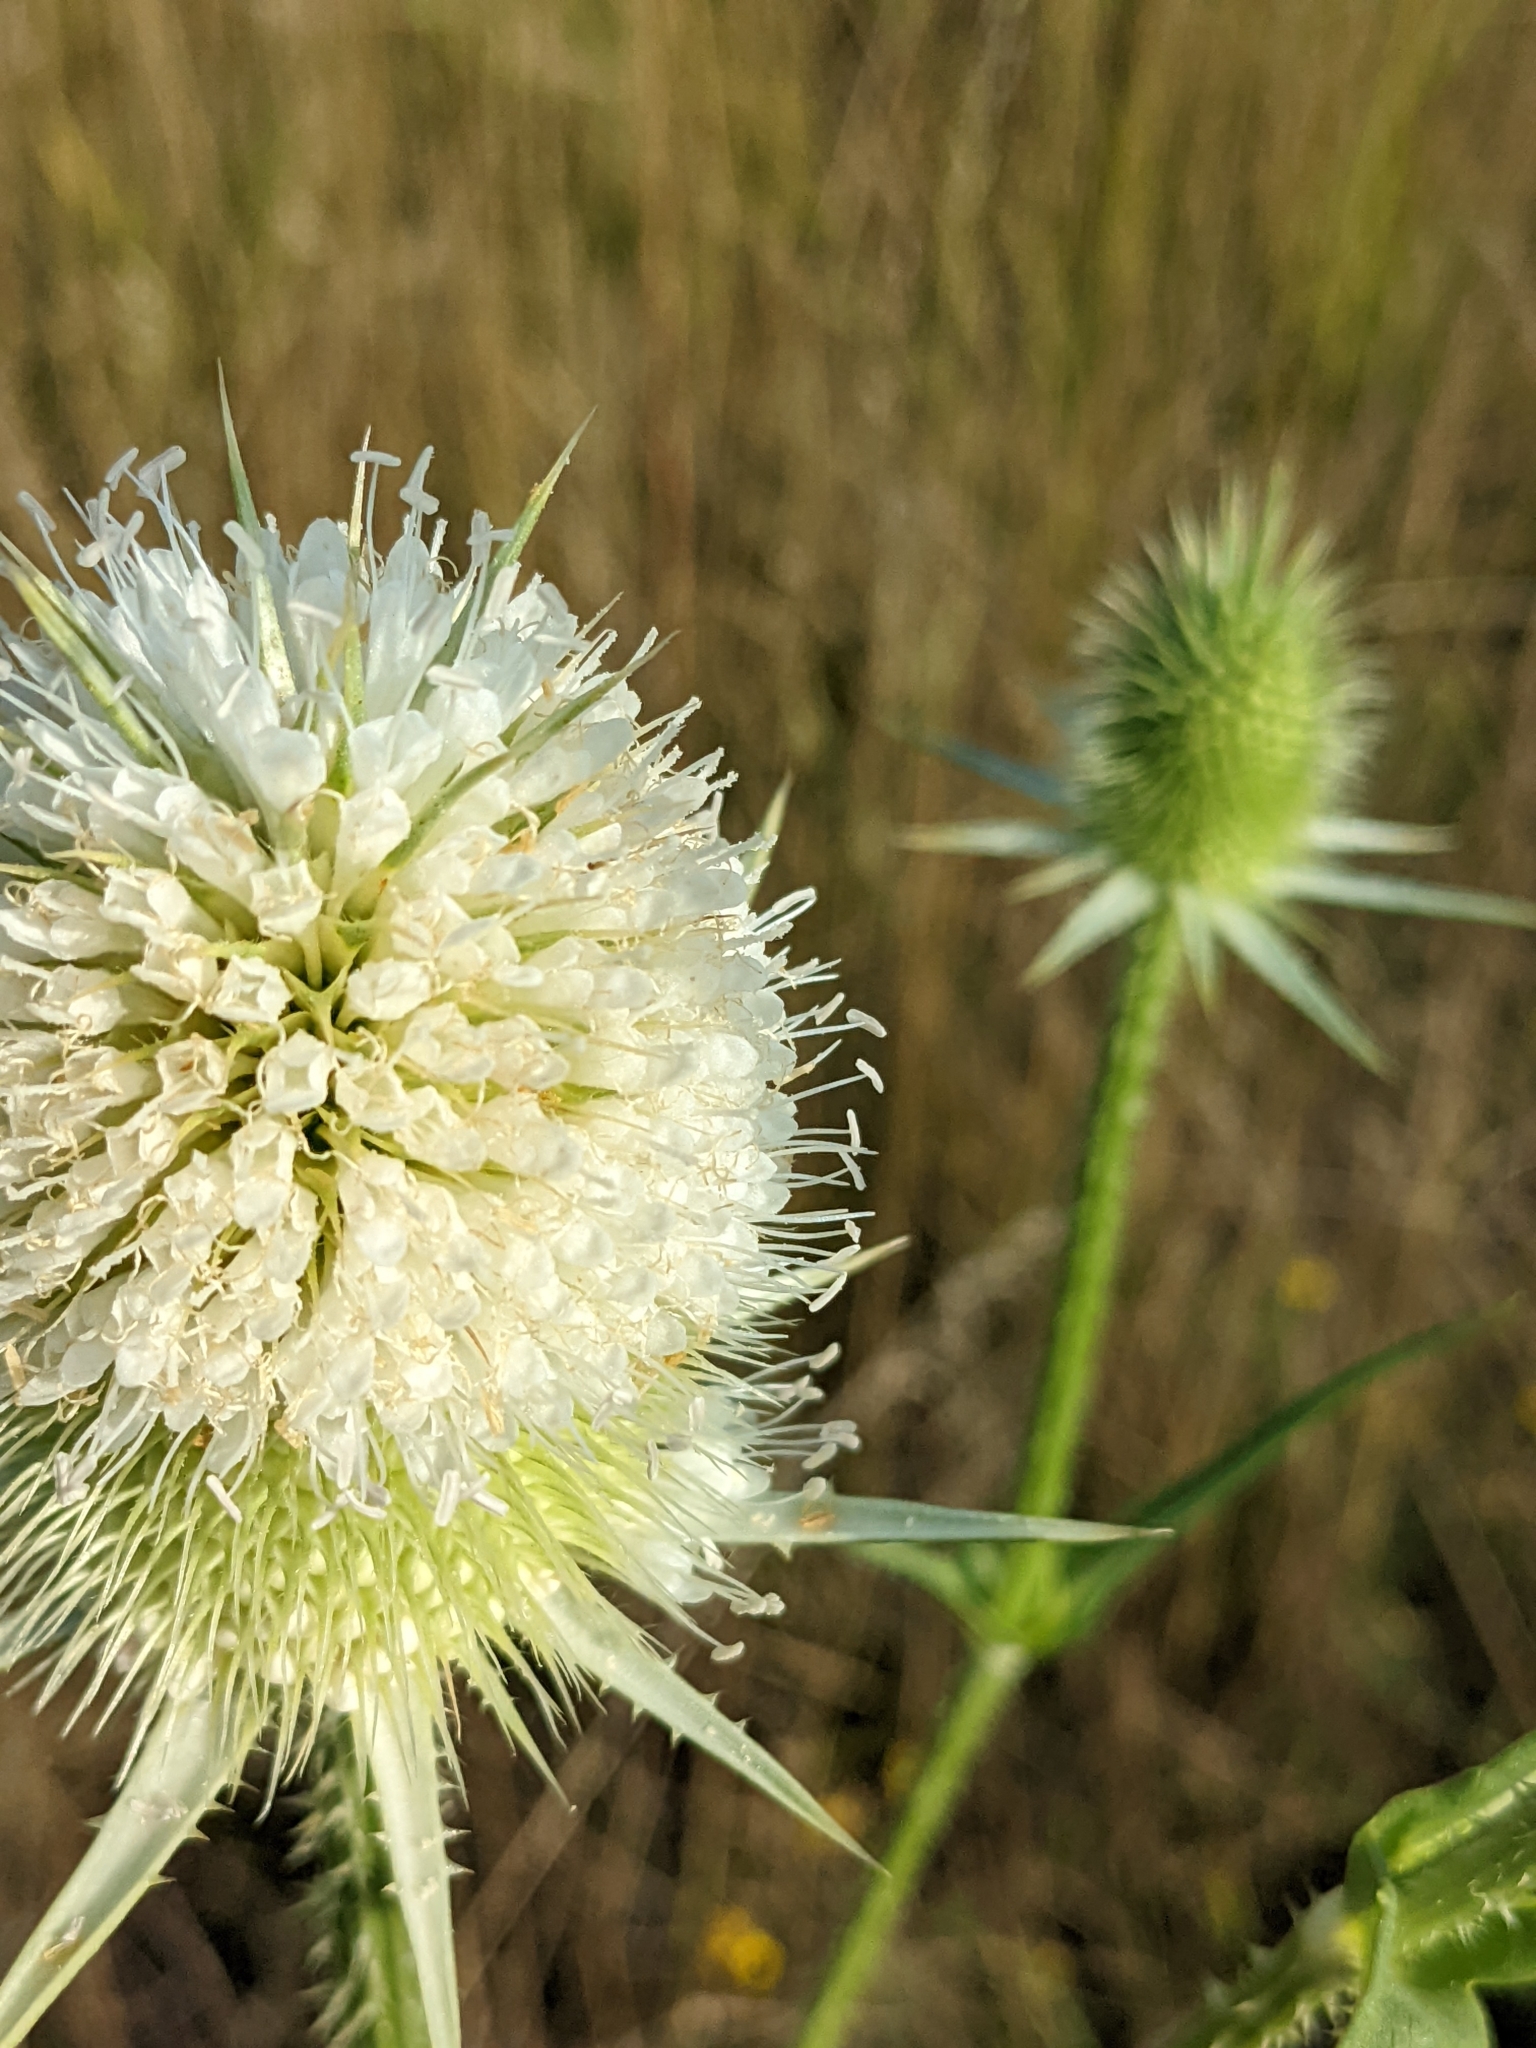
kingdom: Plantae
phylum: Tracheophyta
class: Magnoliopsida
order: Dipsacales
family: Caprifoliaceae
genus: Dipsacus
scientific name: Dipsacus laciniatus
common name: Cut-leaved teasel
